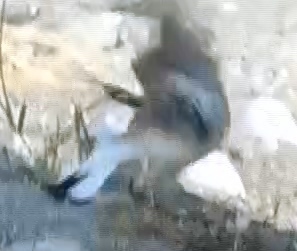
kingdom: Animalia
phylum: Chordata
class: Aves
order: Passeriformes
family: Muscicapidae
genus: Oenanthe
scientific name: Oenanthe oenanthe
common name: Northern wheatear
